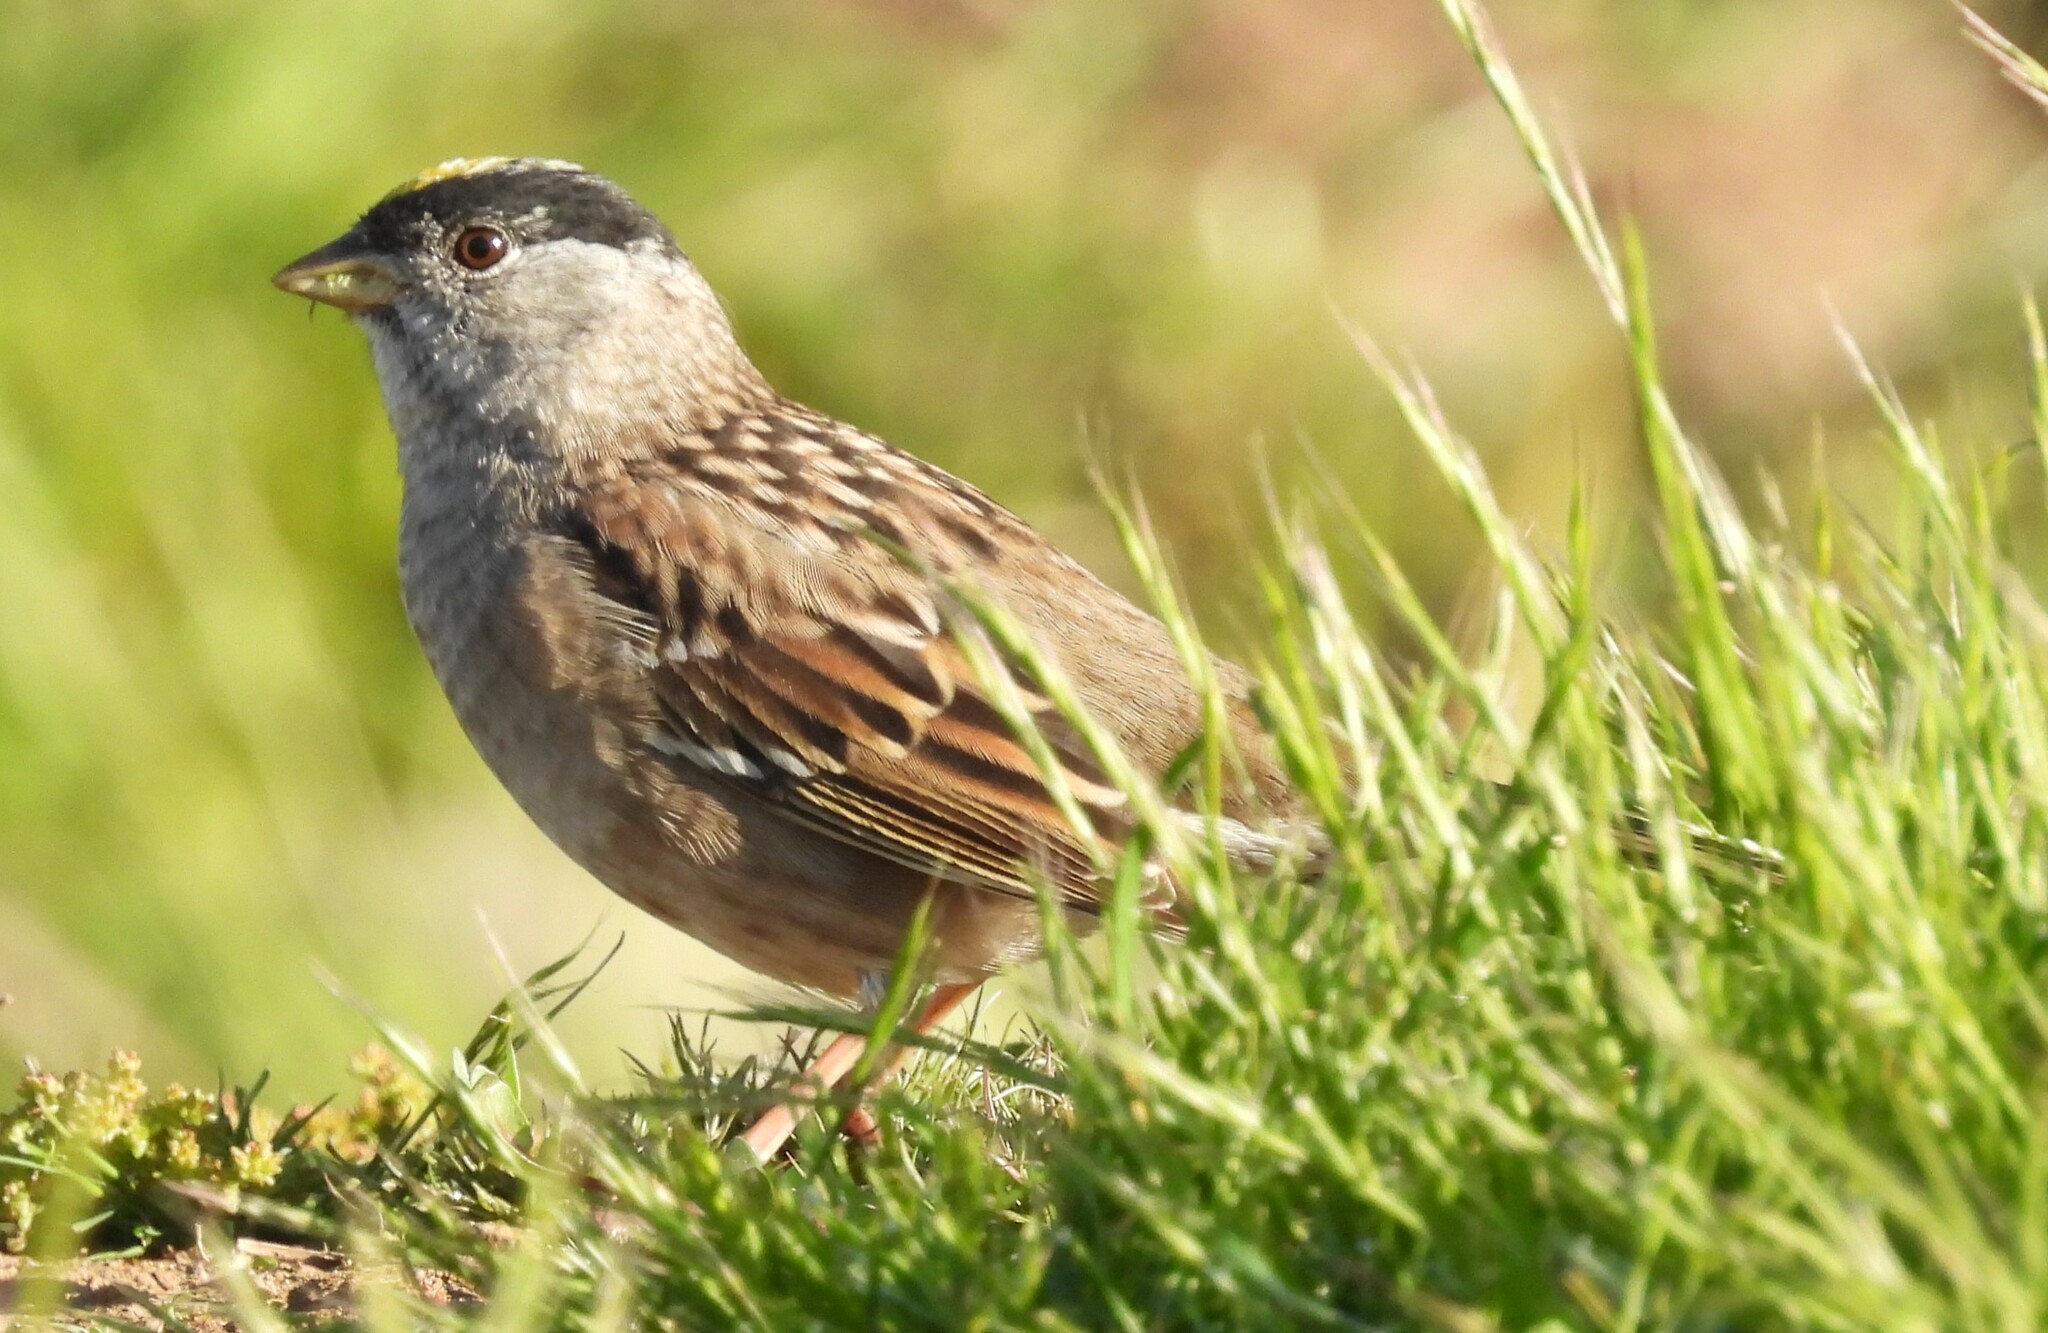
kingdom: Animalia
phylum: Chordata
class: Aves
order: Passeriformes
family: Passerellidae
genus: Zonotrichia
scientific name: Zonotrichia atricapilla
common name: Golden-crowned sparrow
